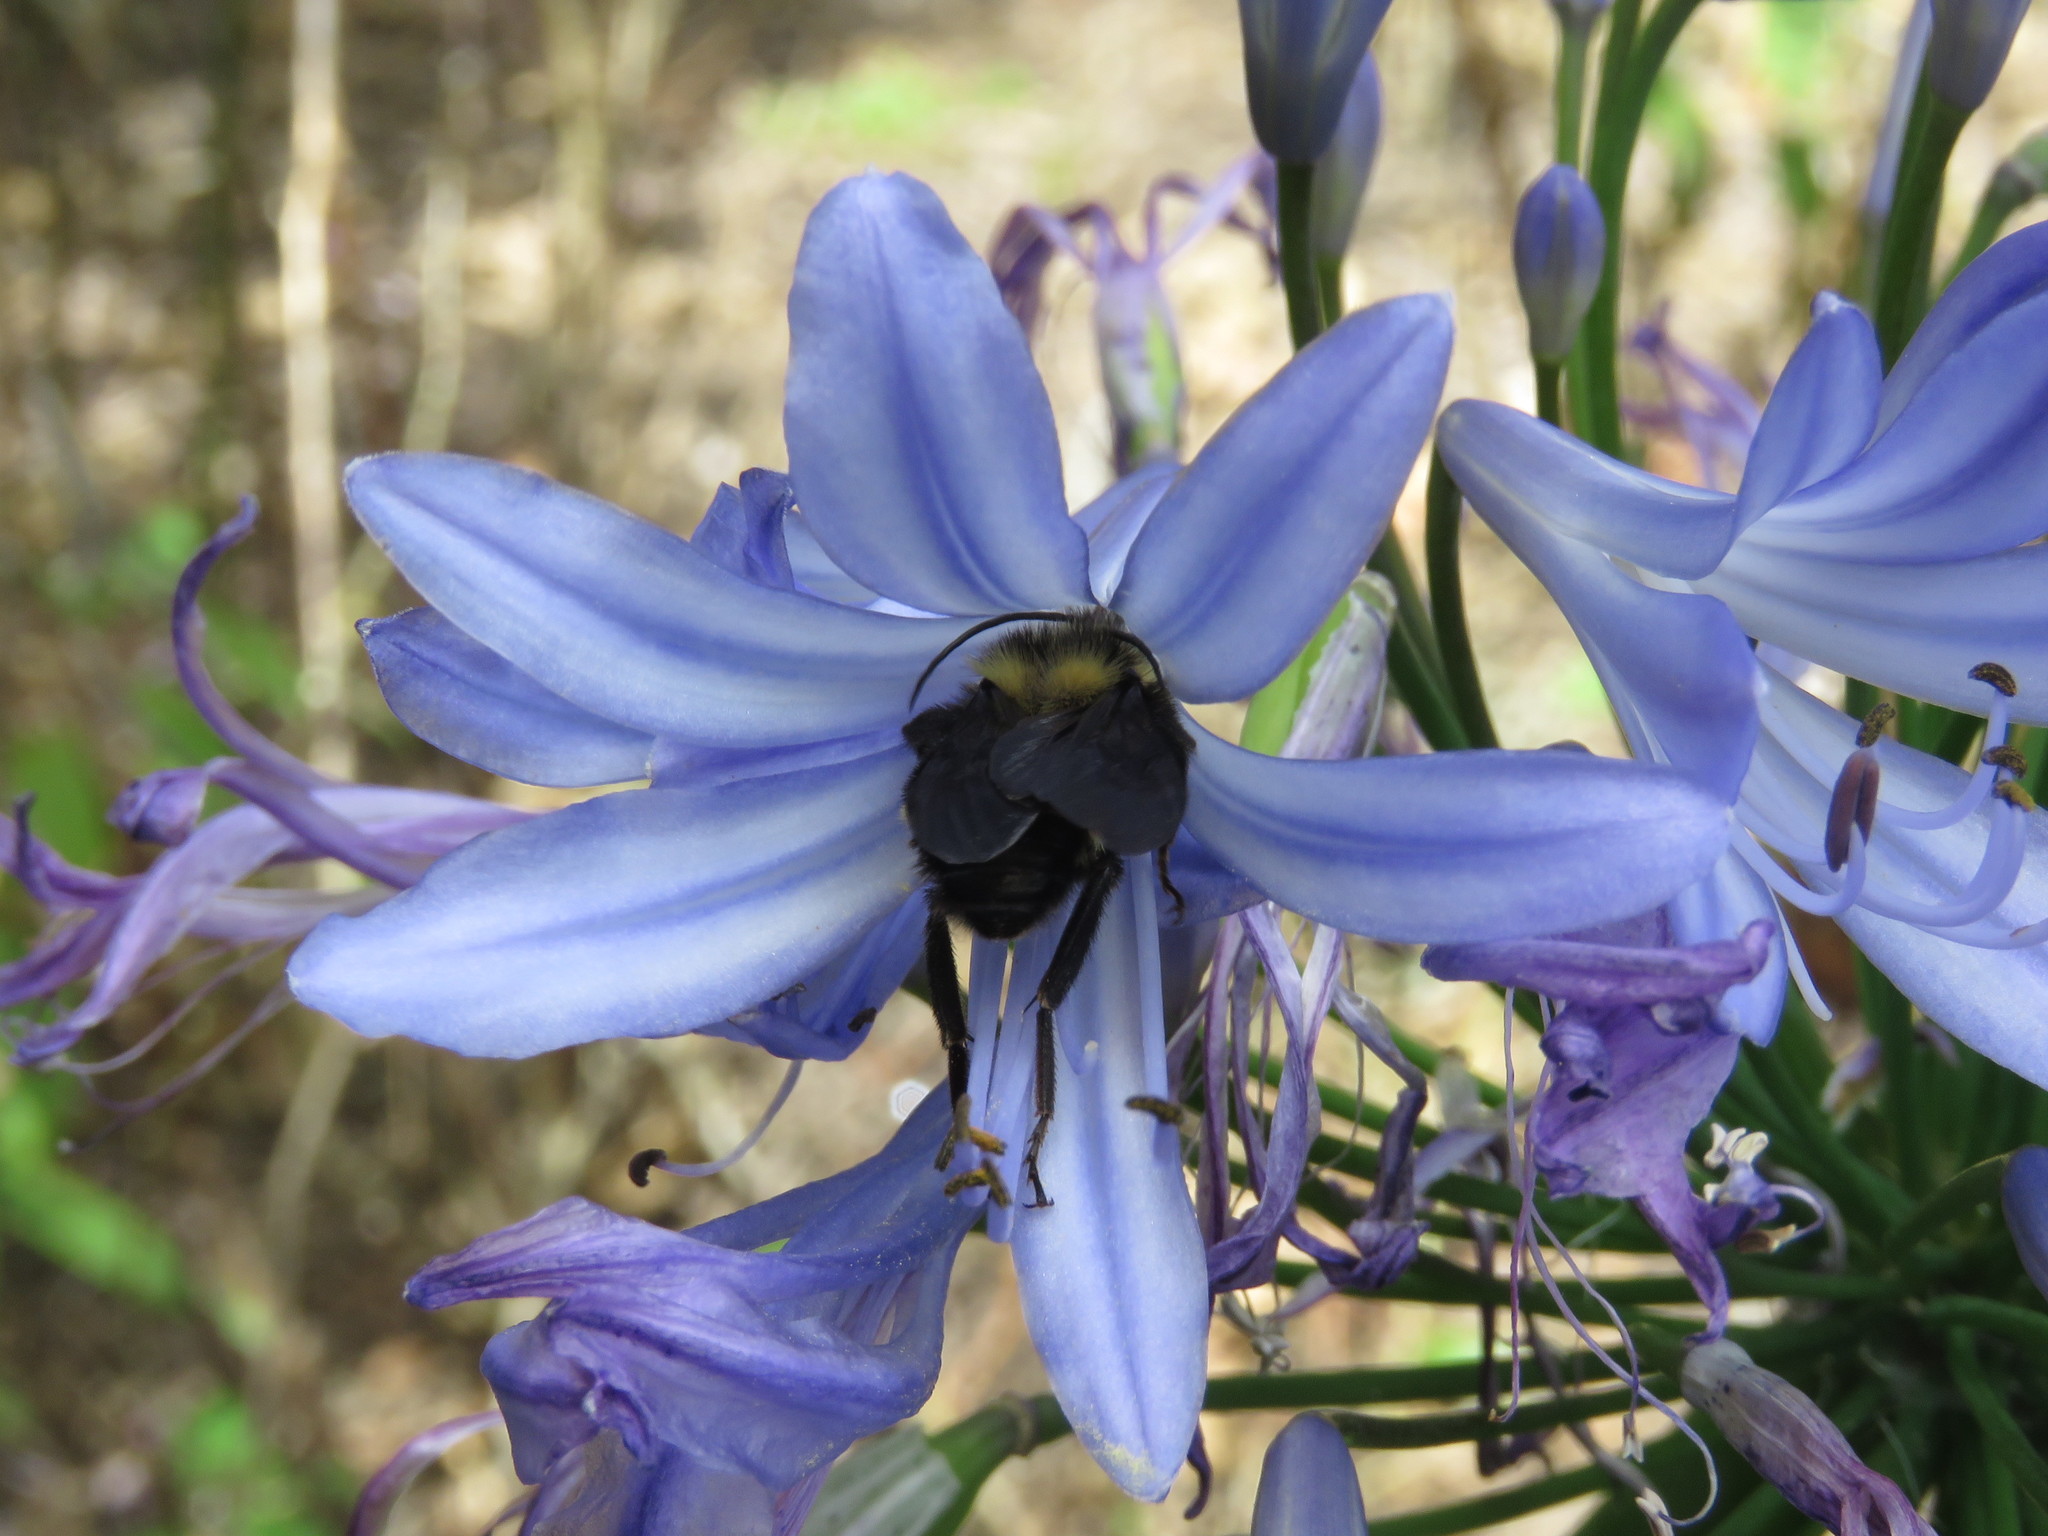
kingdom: Animalia
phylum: Arthropoda
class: Insecta
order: Hymenoptera
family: Apidae
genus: Bombus
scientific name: Bombus pauloensis
